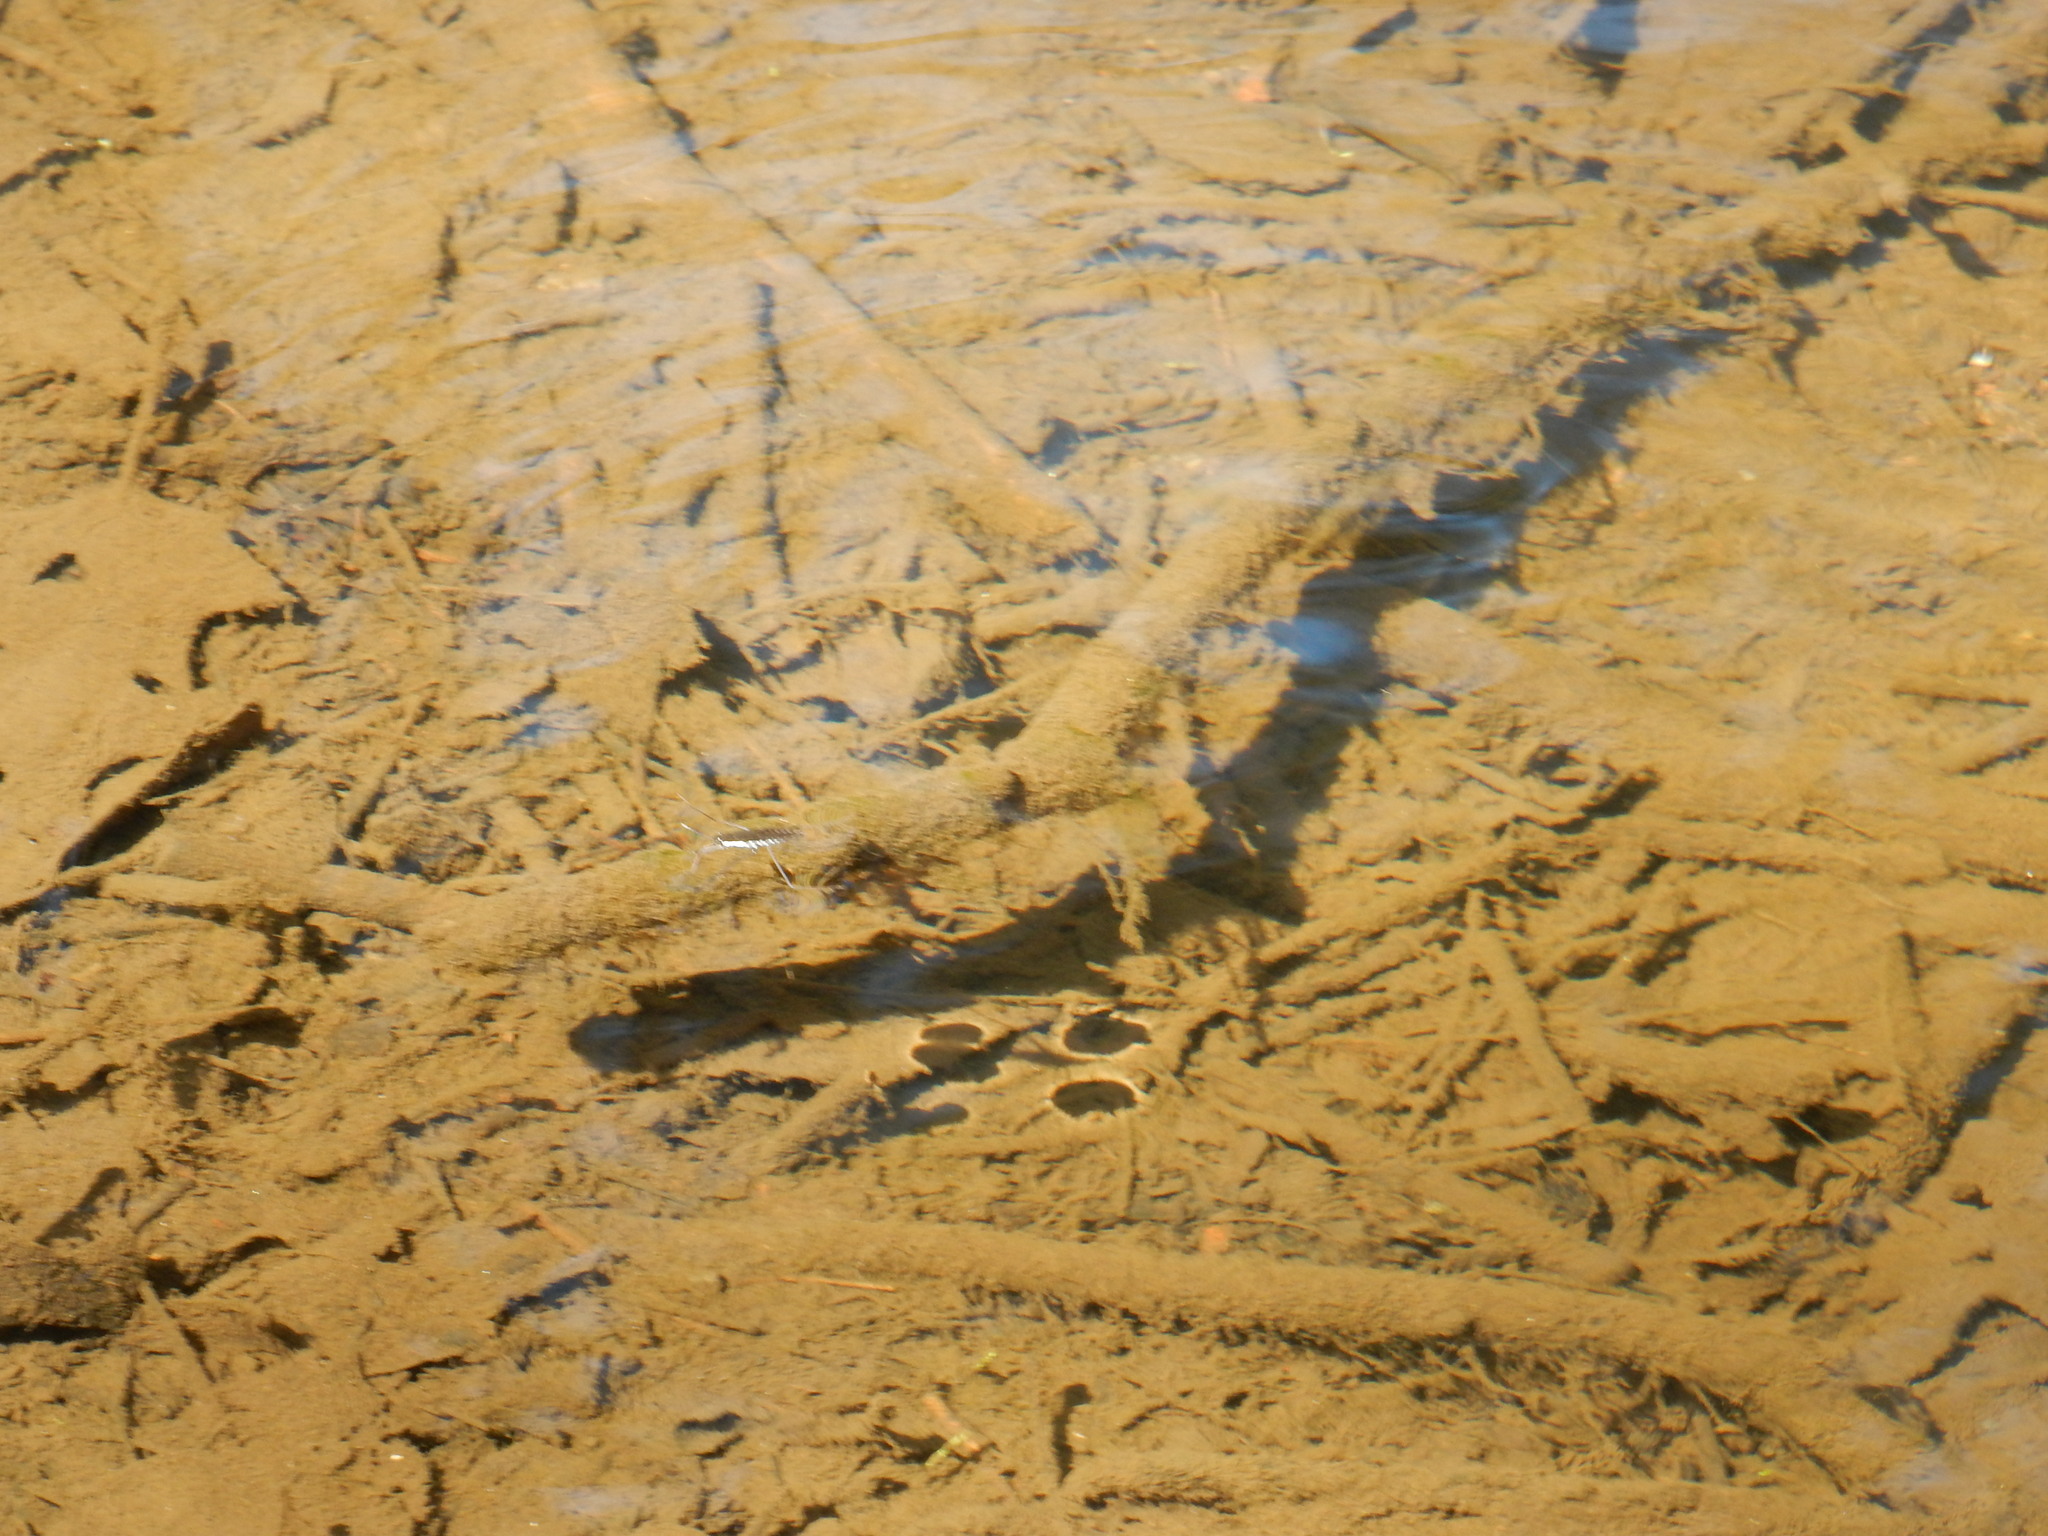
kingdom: Animalia
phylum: Arthropoda
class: Insecta
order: Hemiptera
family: Gerridae
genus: Aquarius
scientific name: Aquarius remigis
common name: Common water strider
